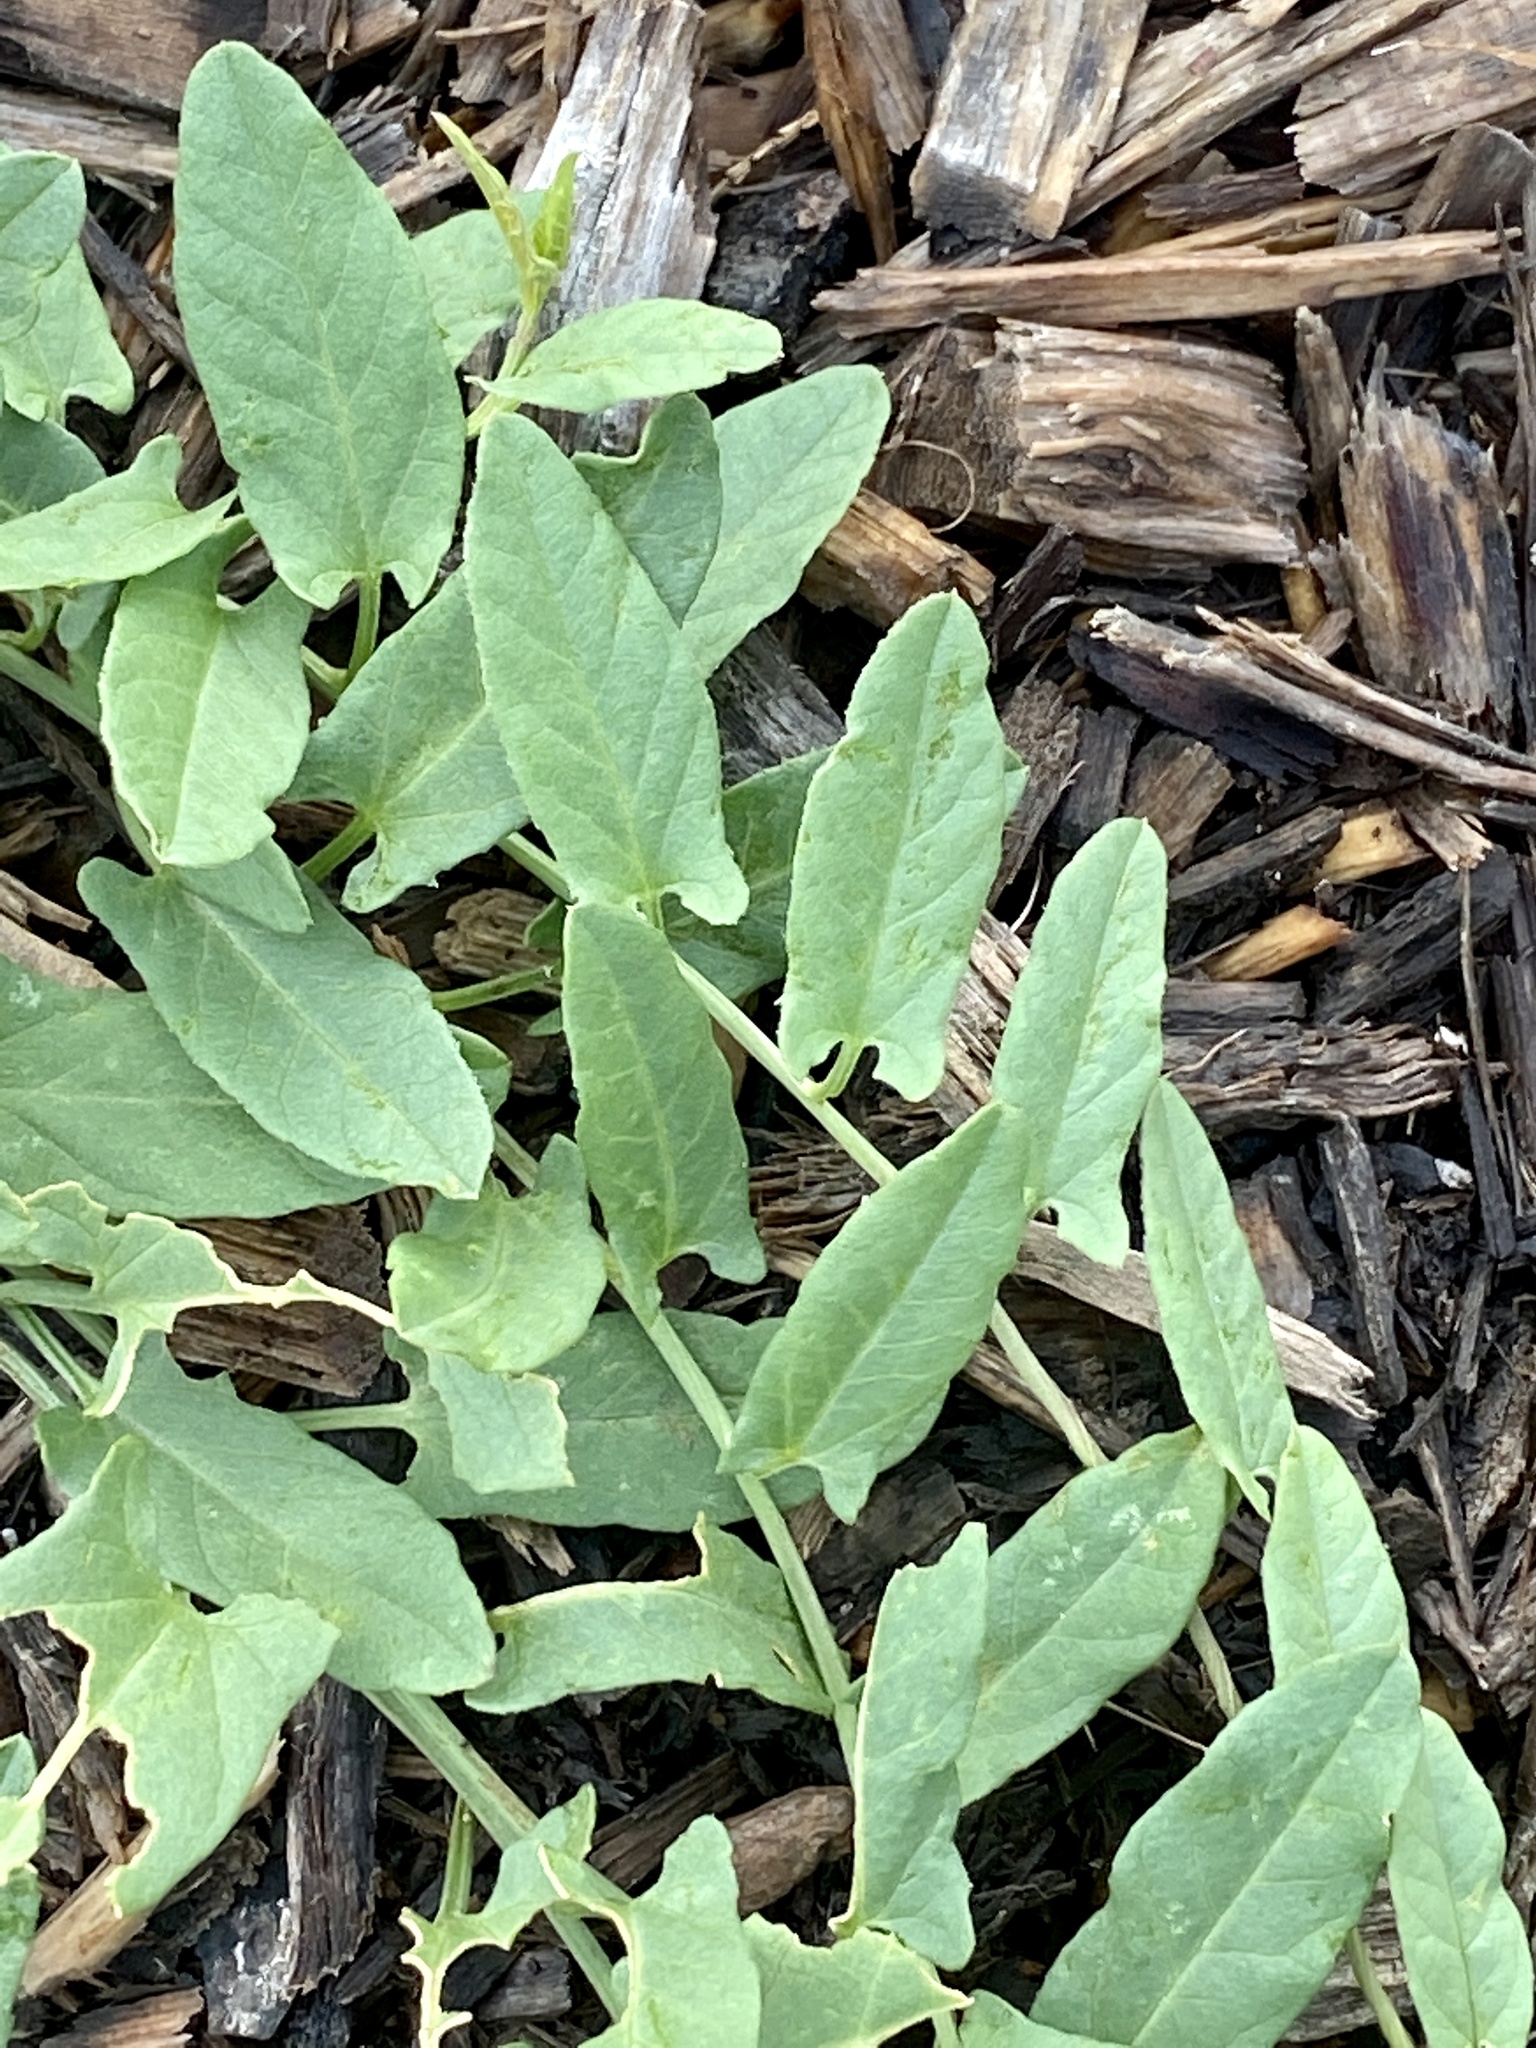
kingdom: Plantae
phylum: Tracheophyta
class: Magnoliopsida
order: Solanales
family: Convolvulaceae
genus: Convolvulus
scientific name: Convolvulus arvensis
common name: Field bindweed
